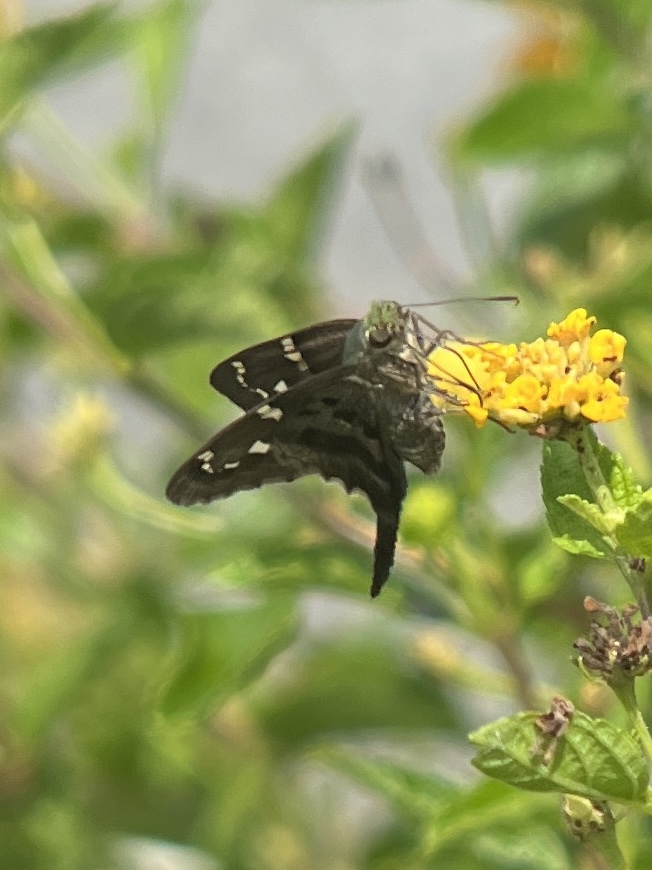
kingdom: Animalia
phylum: Arthropoda
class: Insecta
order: Lepidoptera
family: Hesperiidae
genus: Urbanus
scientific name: Urbanus proteus
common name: Long-tailed skipper
